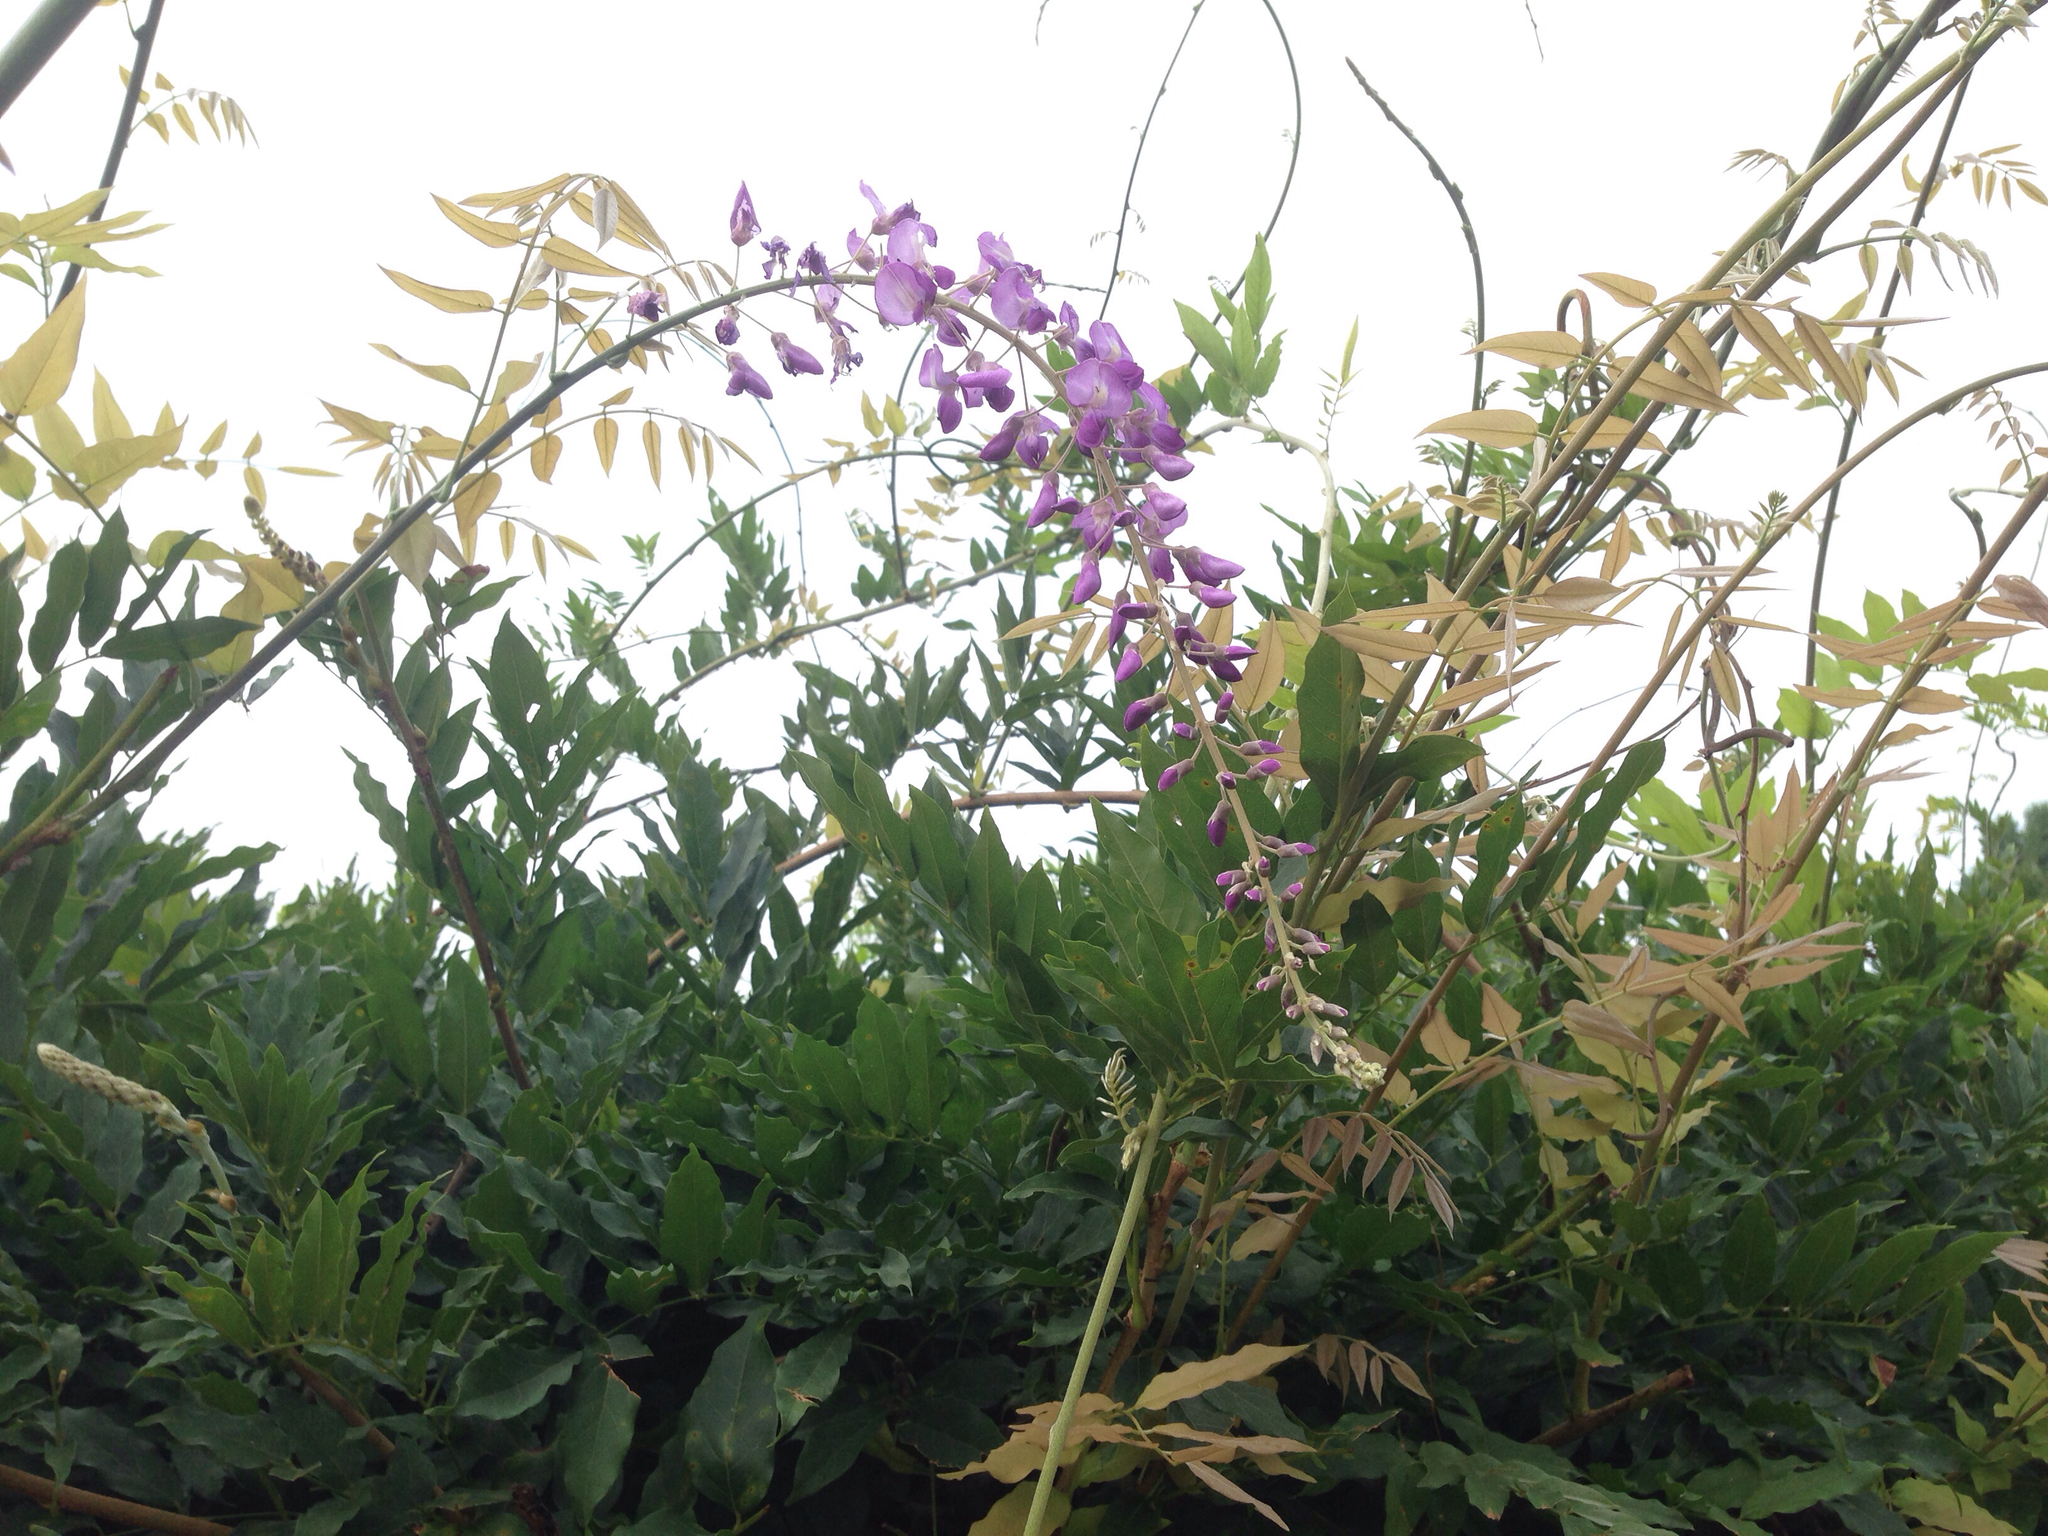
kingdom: Plantae
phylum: Tracheophyta
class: Magnoliopsida
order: Fabales
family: Fabaceae
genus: Wisteria
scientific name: Wisteria floribunda
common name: Japanese wisteria
